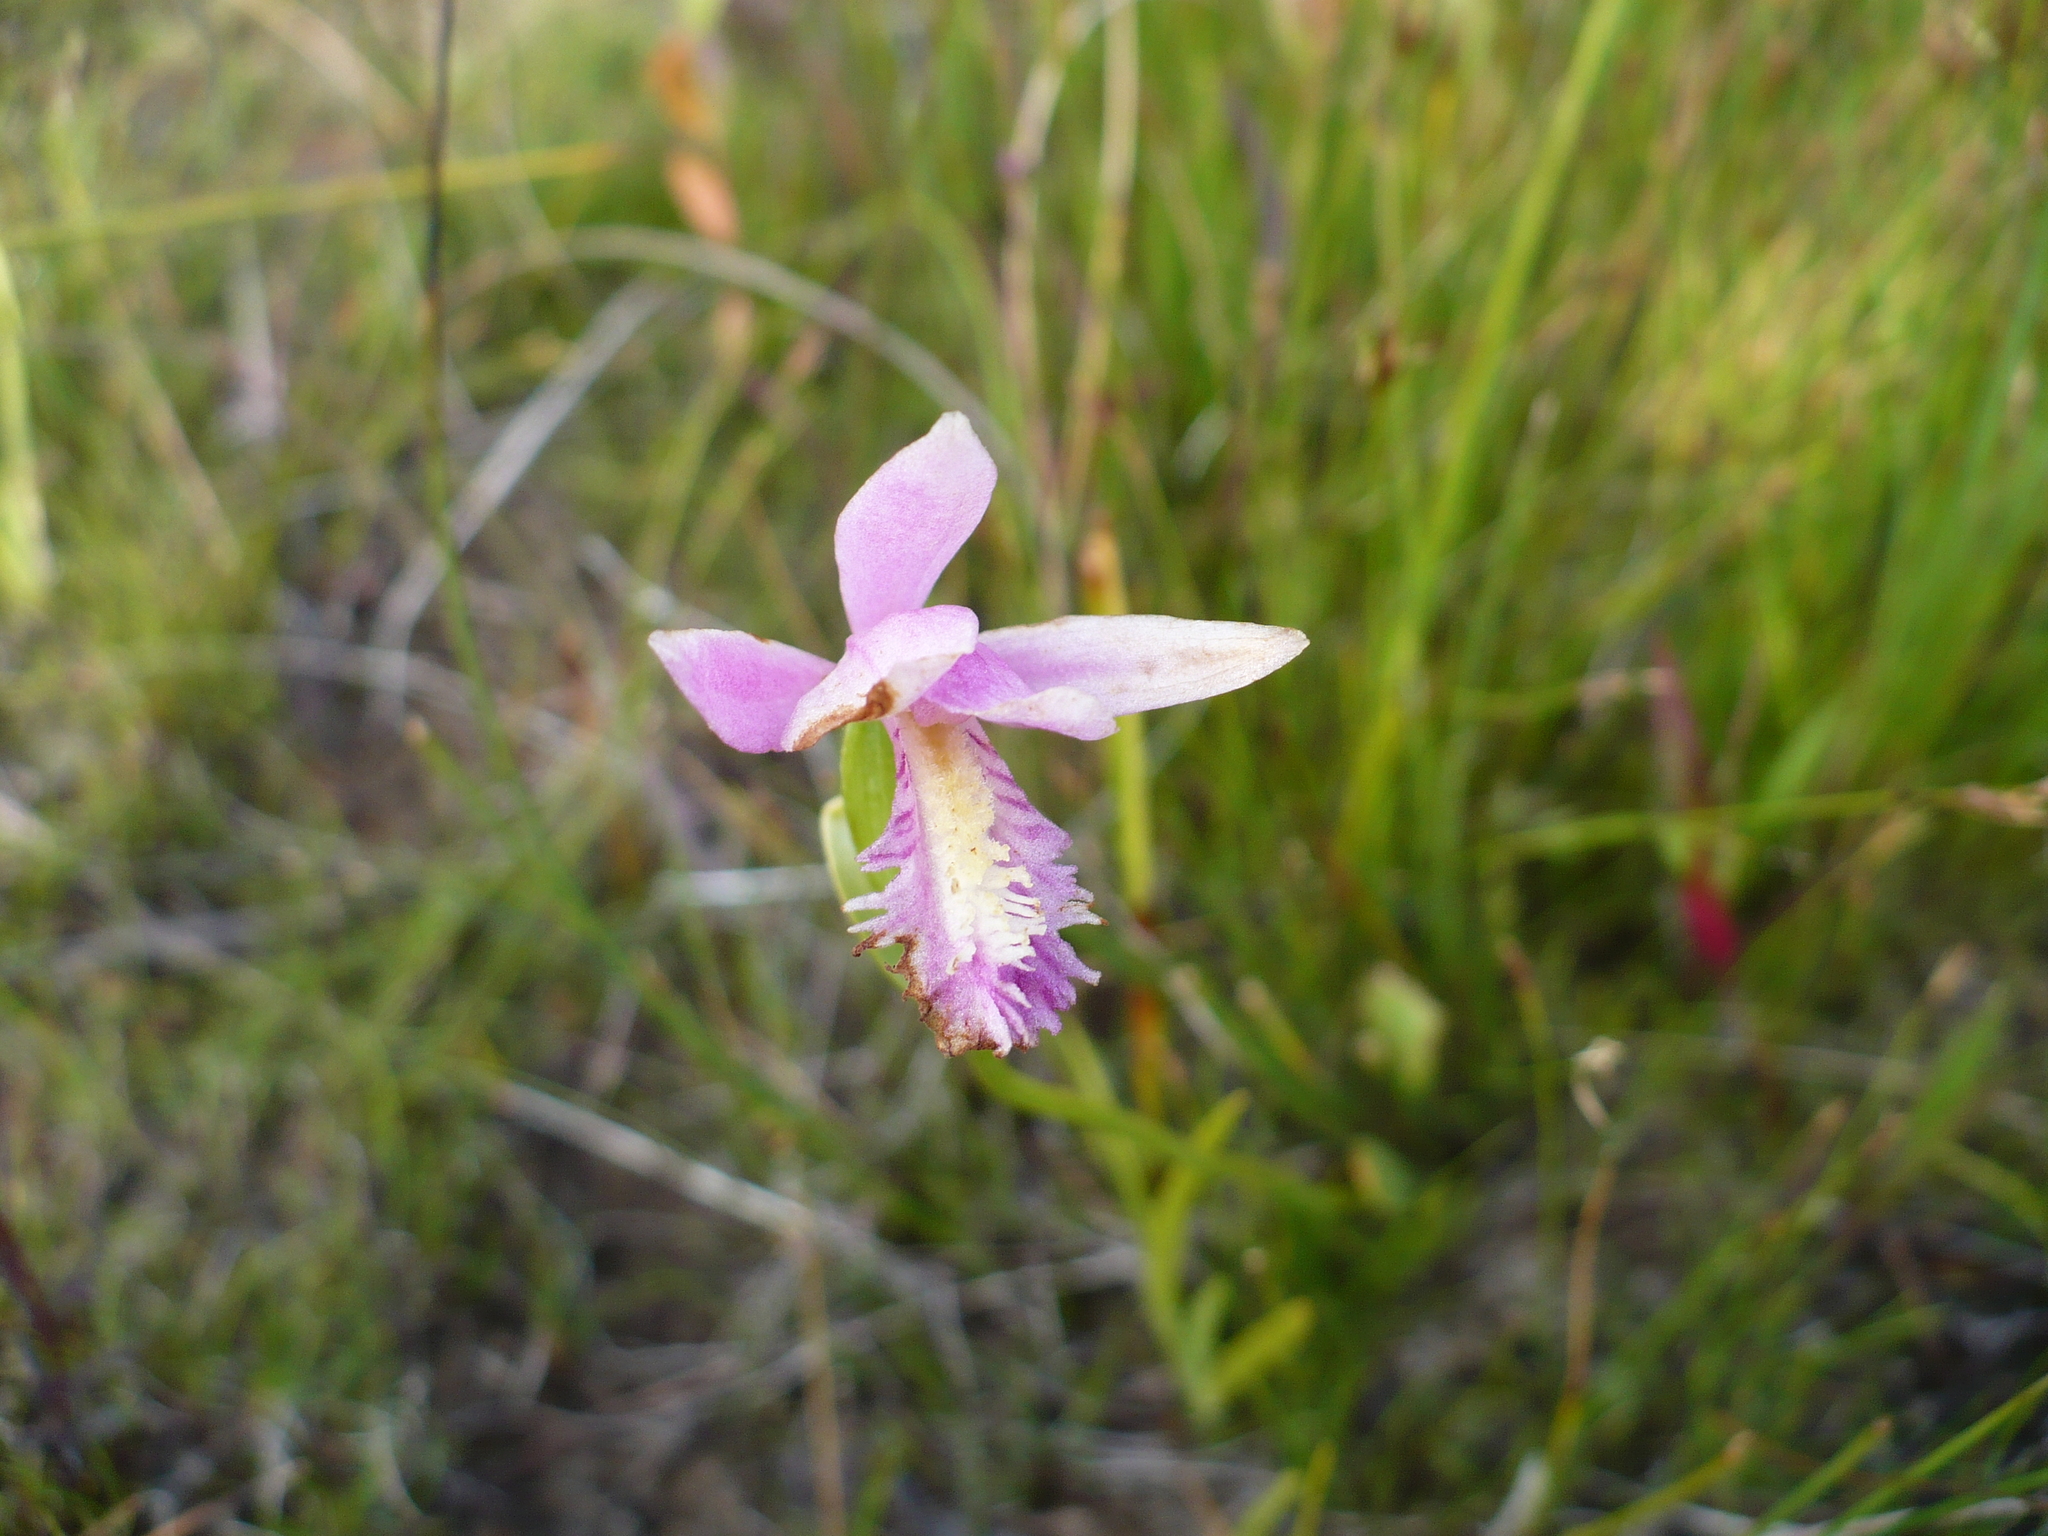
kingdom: Plantae
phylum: Tracheophyta
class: Liliopsida
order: Asparagales
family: Orchidaceae
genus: Pogonia
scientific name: Pogonia ophioglossoides
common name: Rose pogonia
